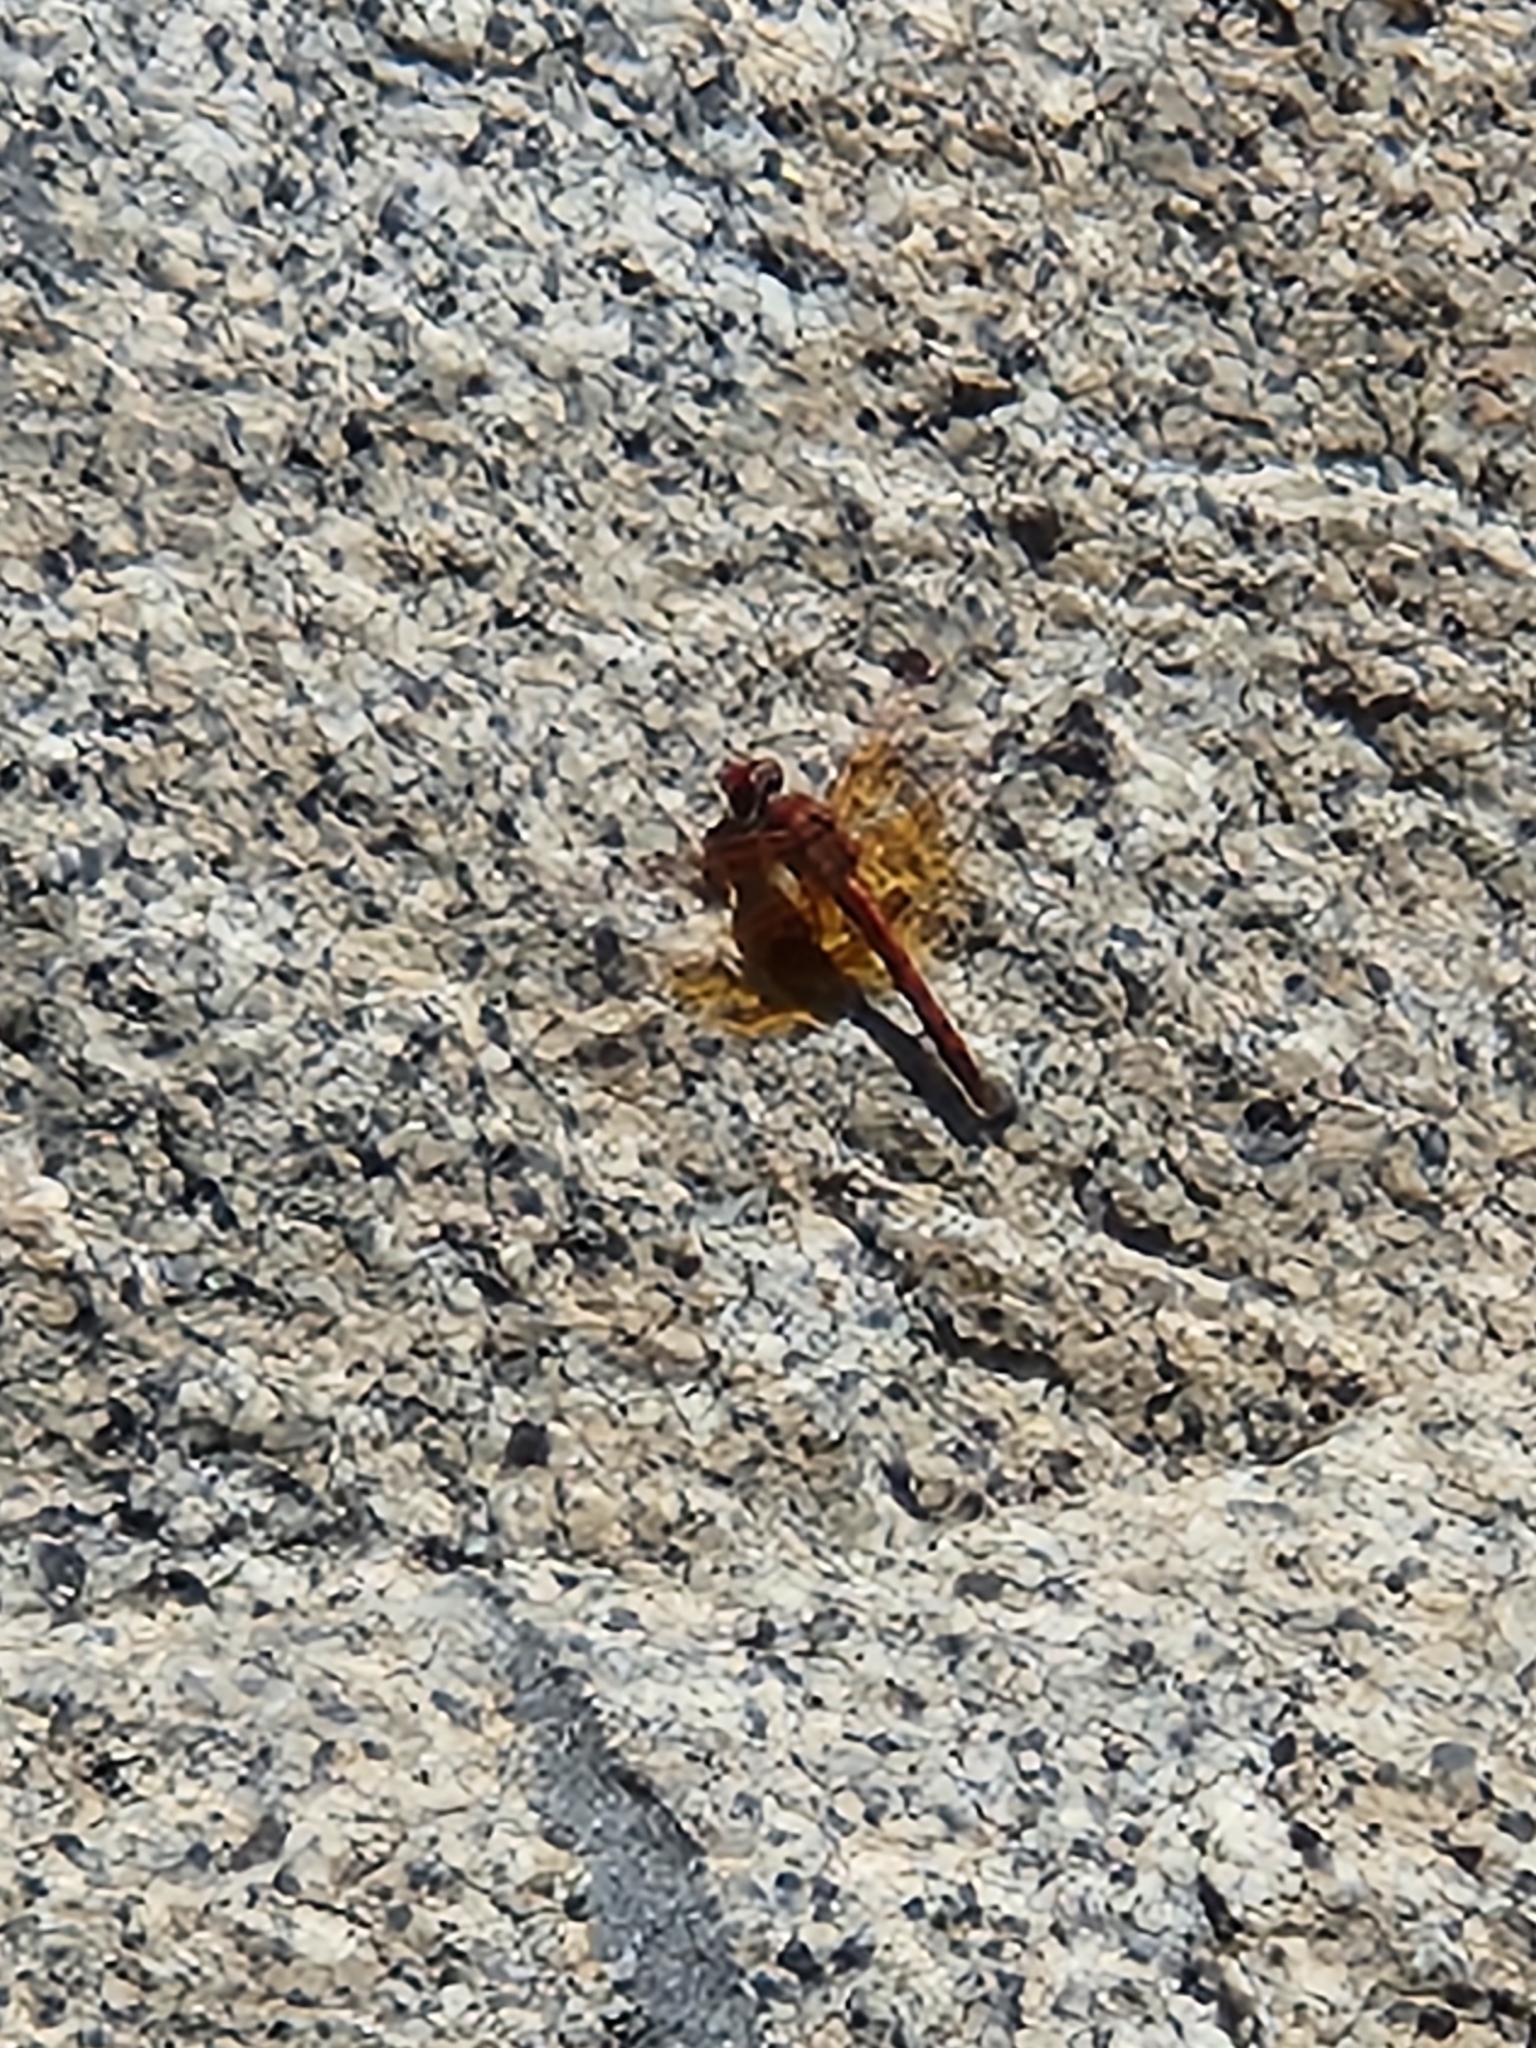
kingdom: Animalia
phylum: Arthropoda
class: Insecta
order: Odonata
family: Libellulidae
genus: Paltothemis
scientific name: Paltothemis lineatipes
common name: Red rock skimmer
